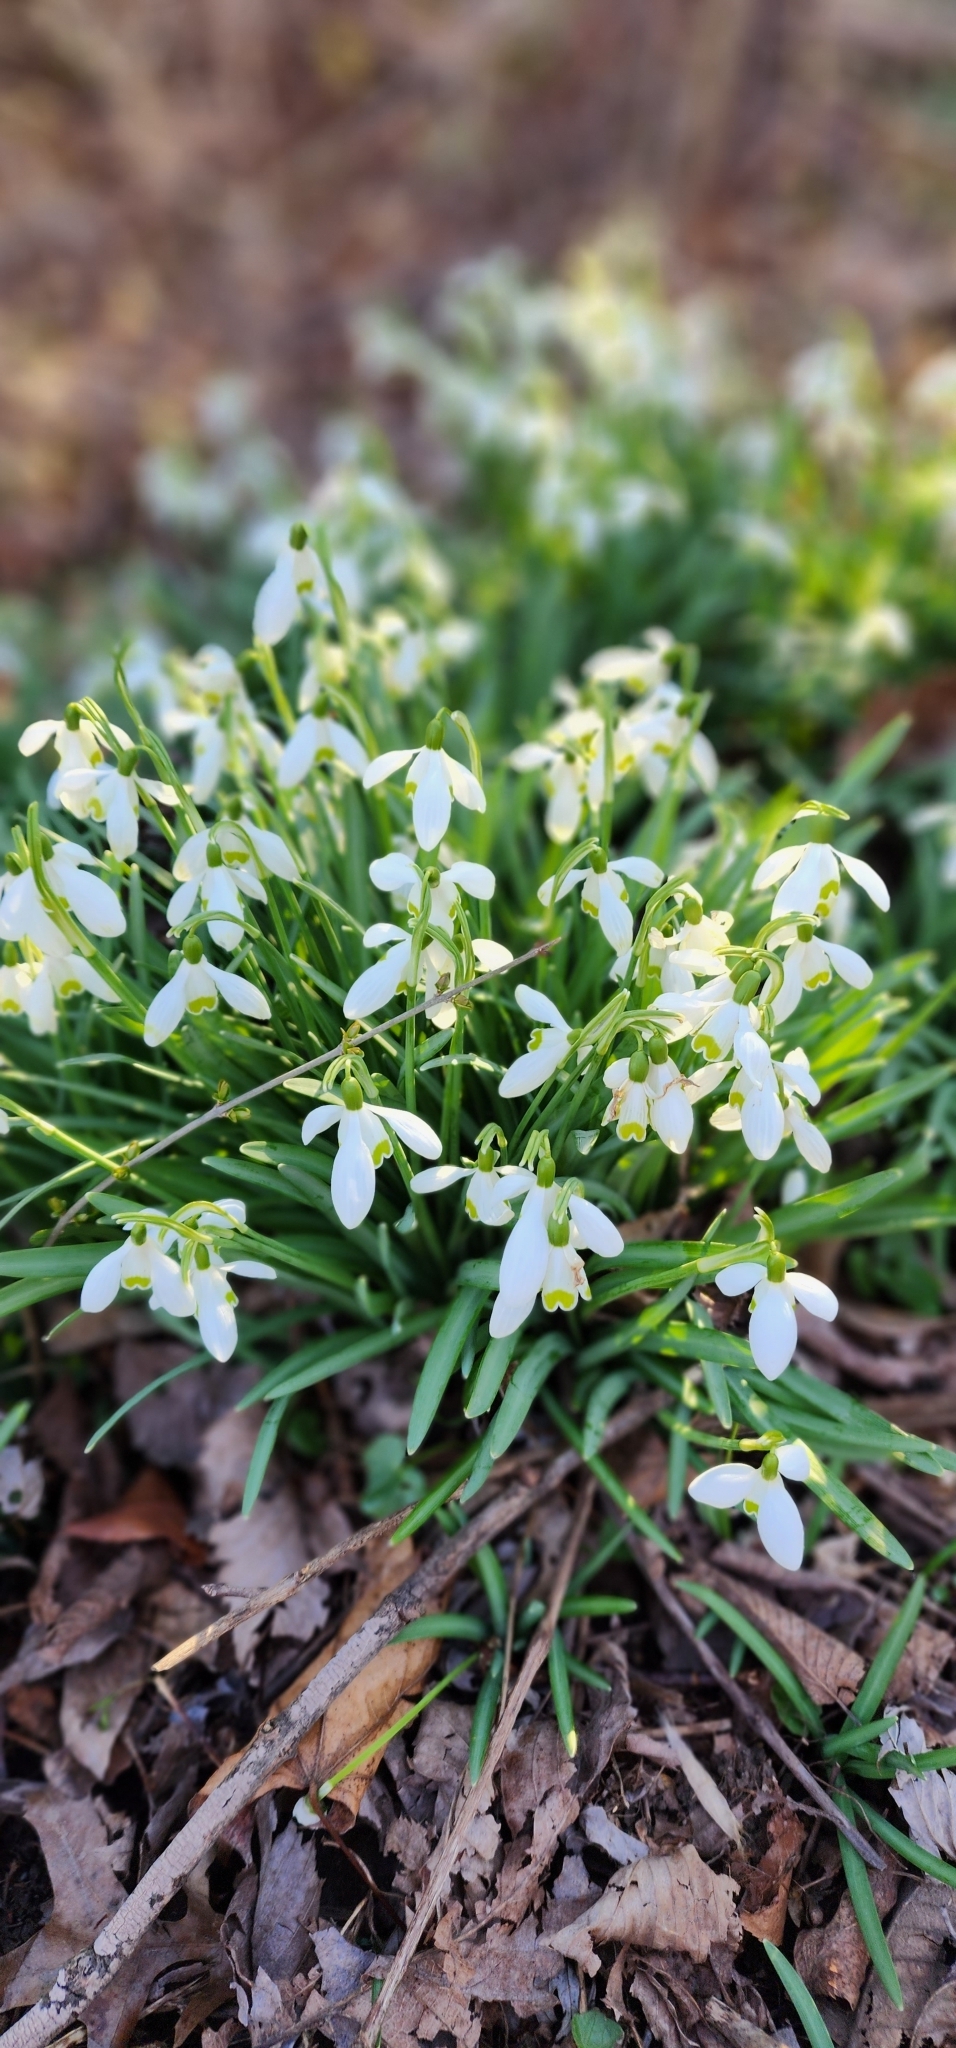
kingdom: Plantae
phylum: Tracheophyta
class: Liliopsida
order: Asparagales
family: Amaryllidaceae
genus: Galanthus
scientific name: Galanthus nivalis
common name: Snowdrop
